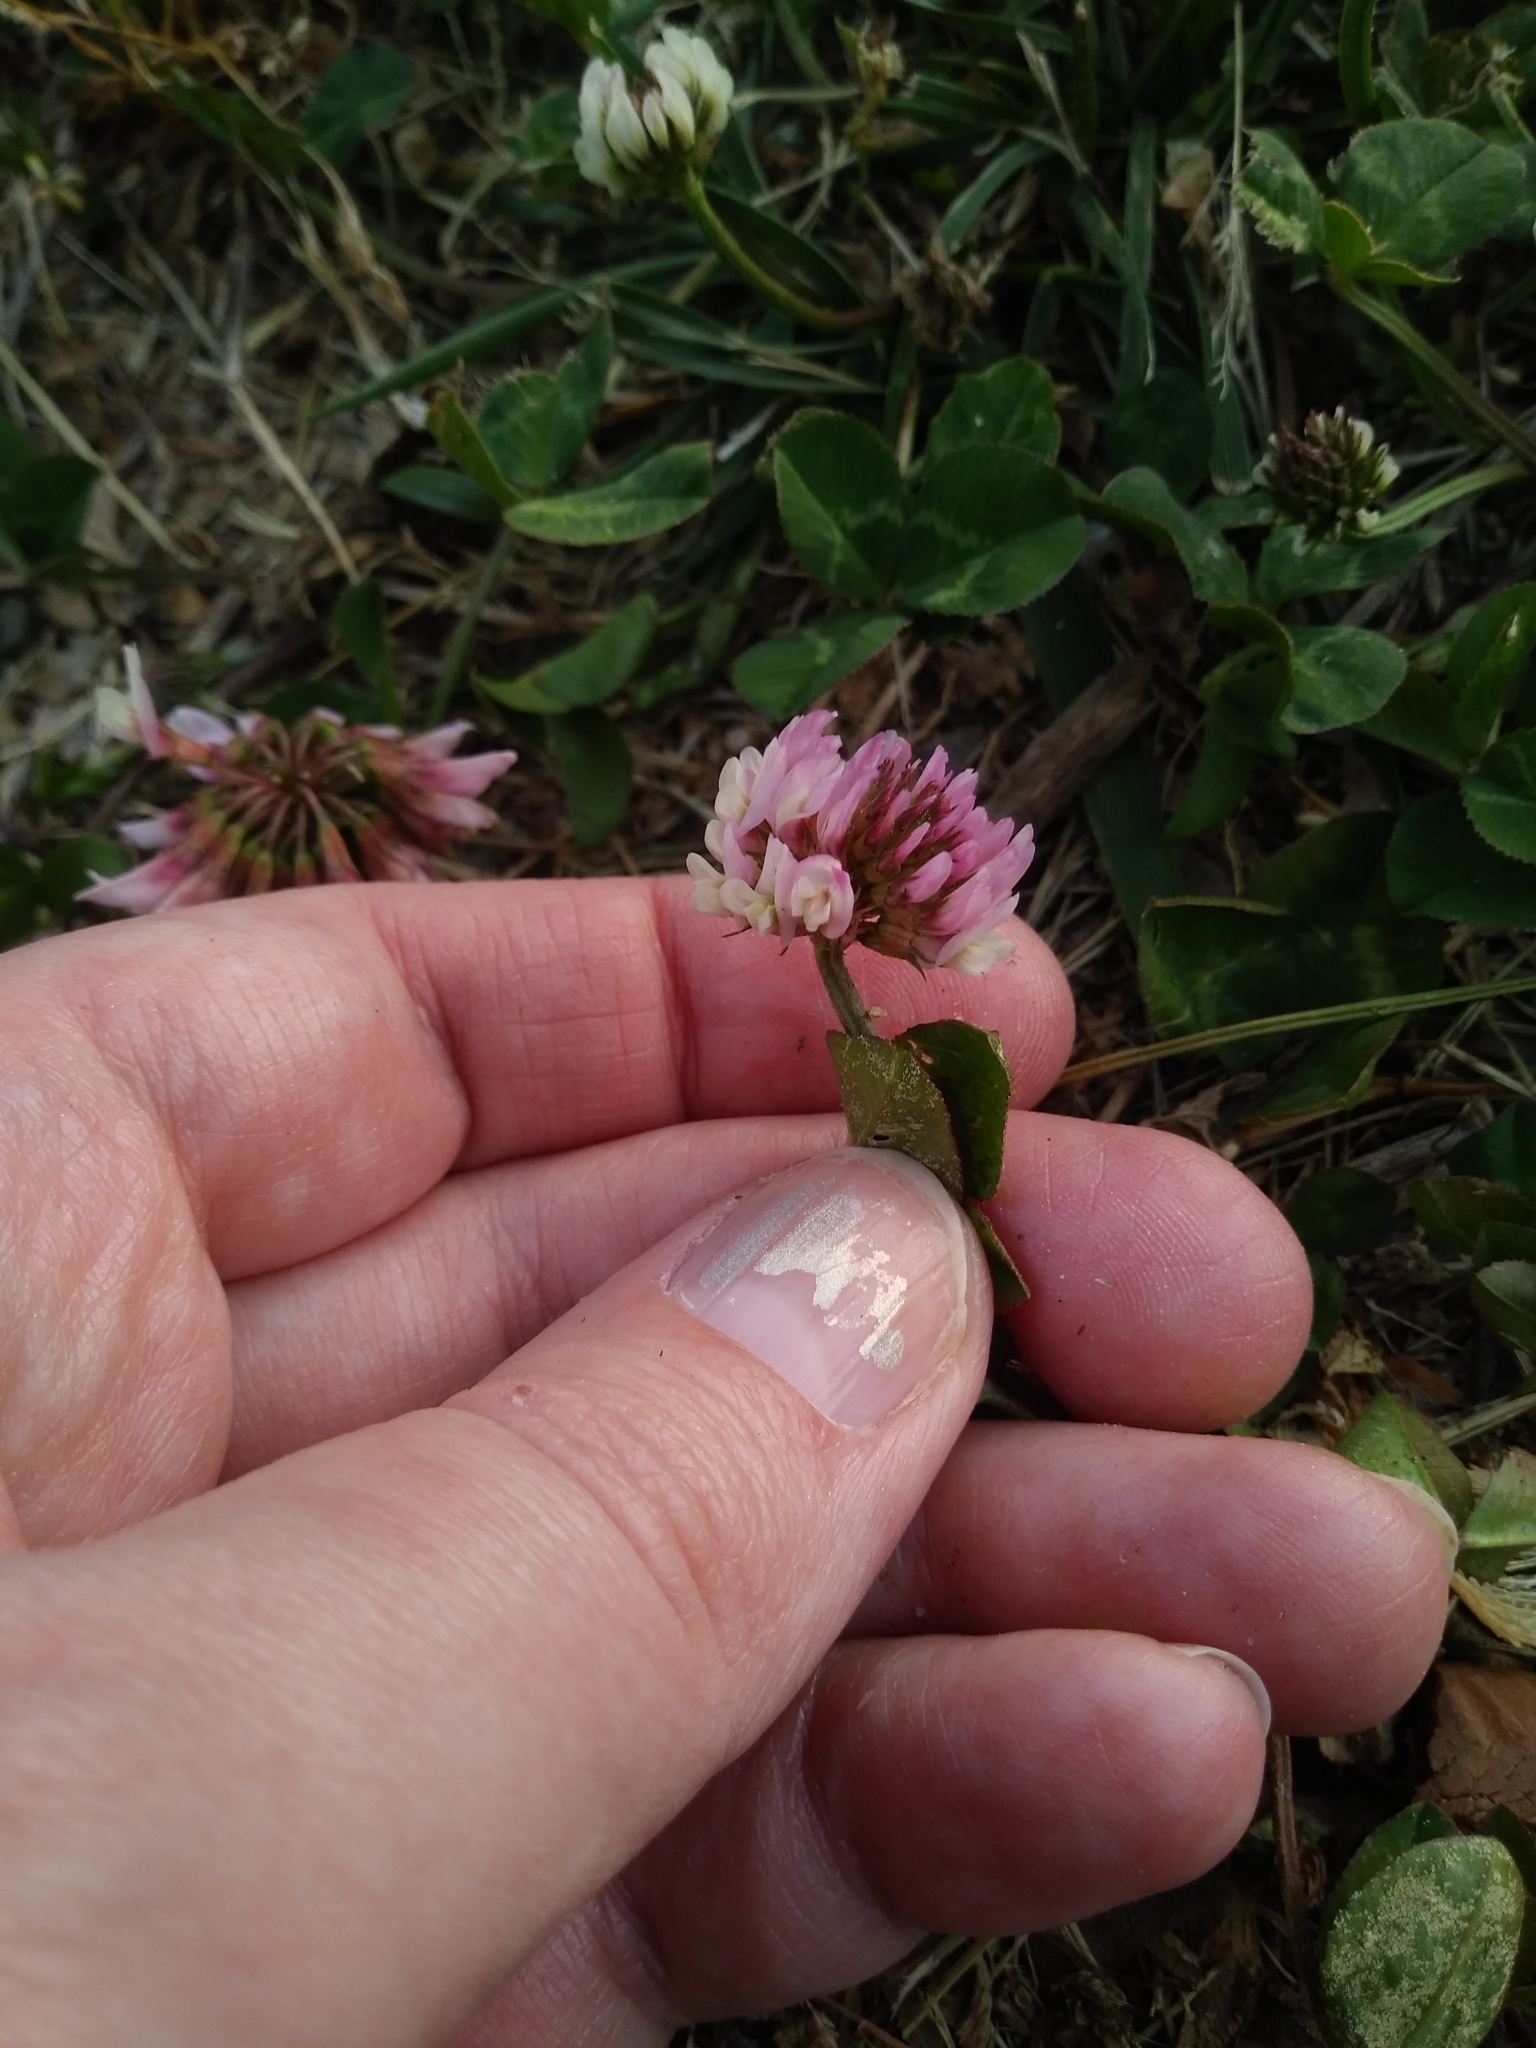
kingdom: Plantae
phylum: Tracheophyta
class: Magnoliopsida
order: Fabales
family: Fabaceae
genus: Trifolium
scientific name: Trifolium repens
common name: White clover
